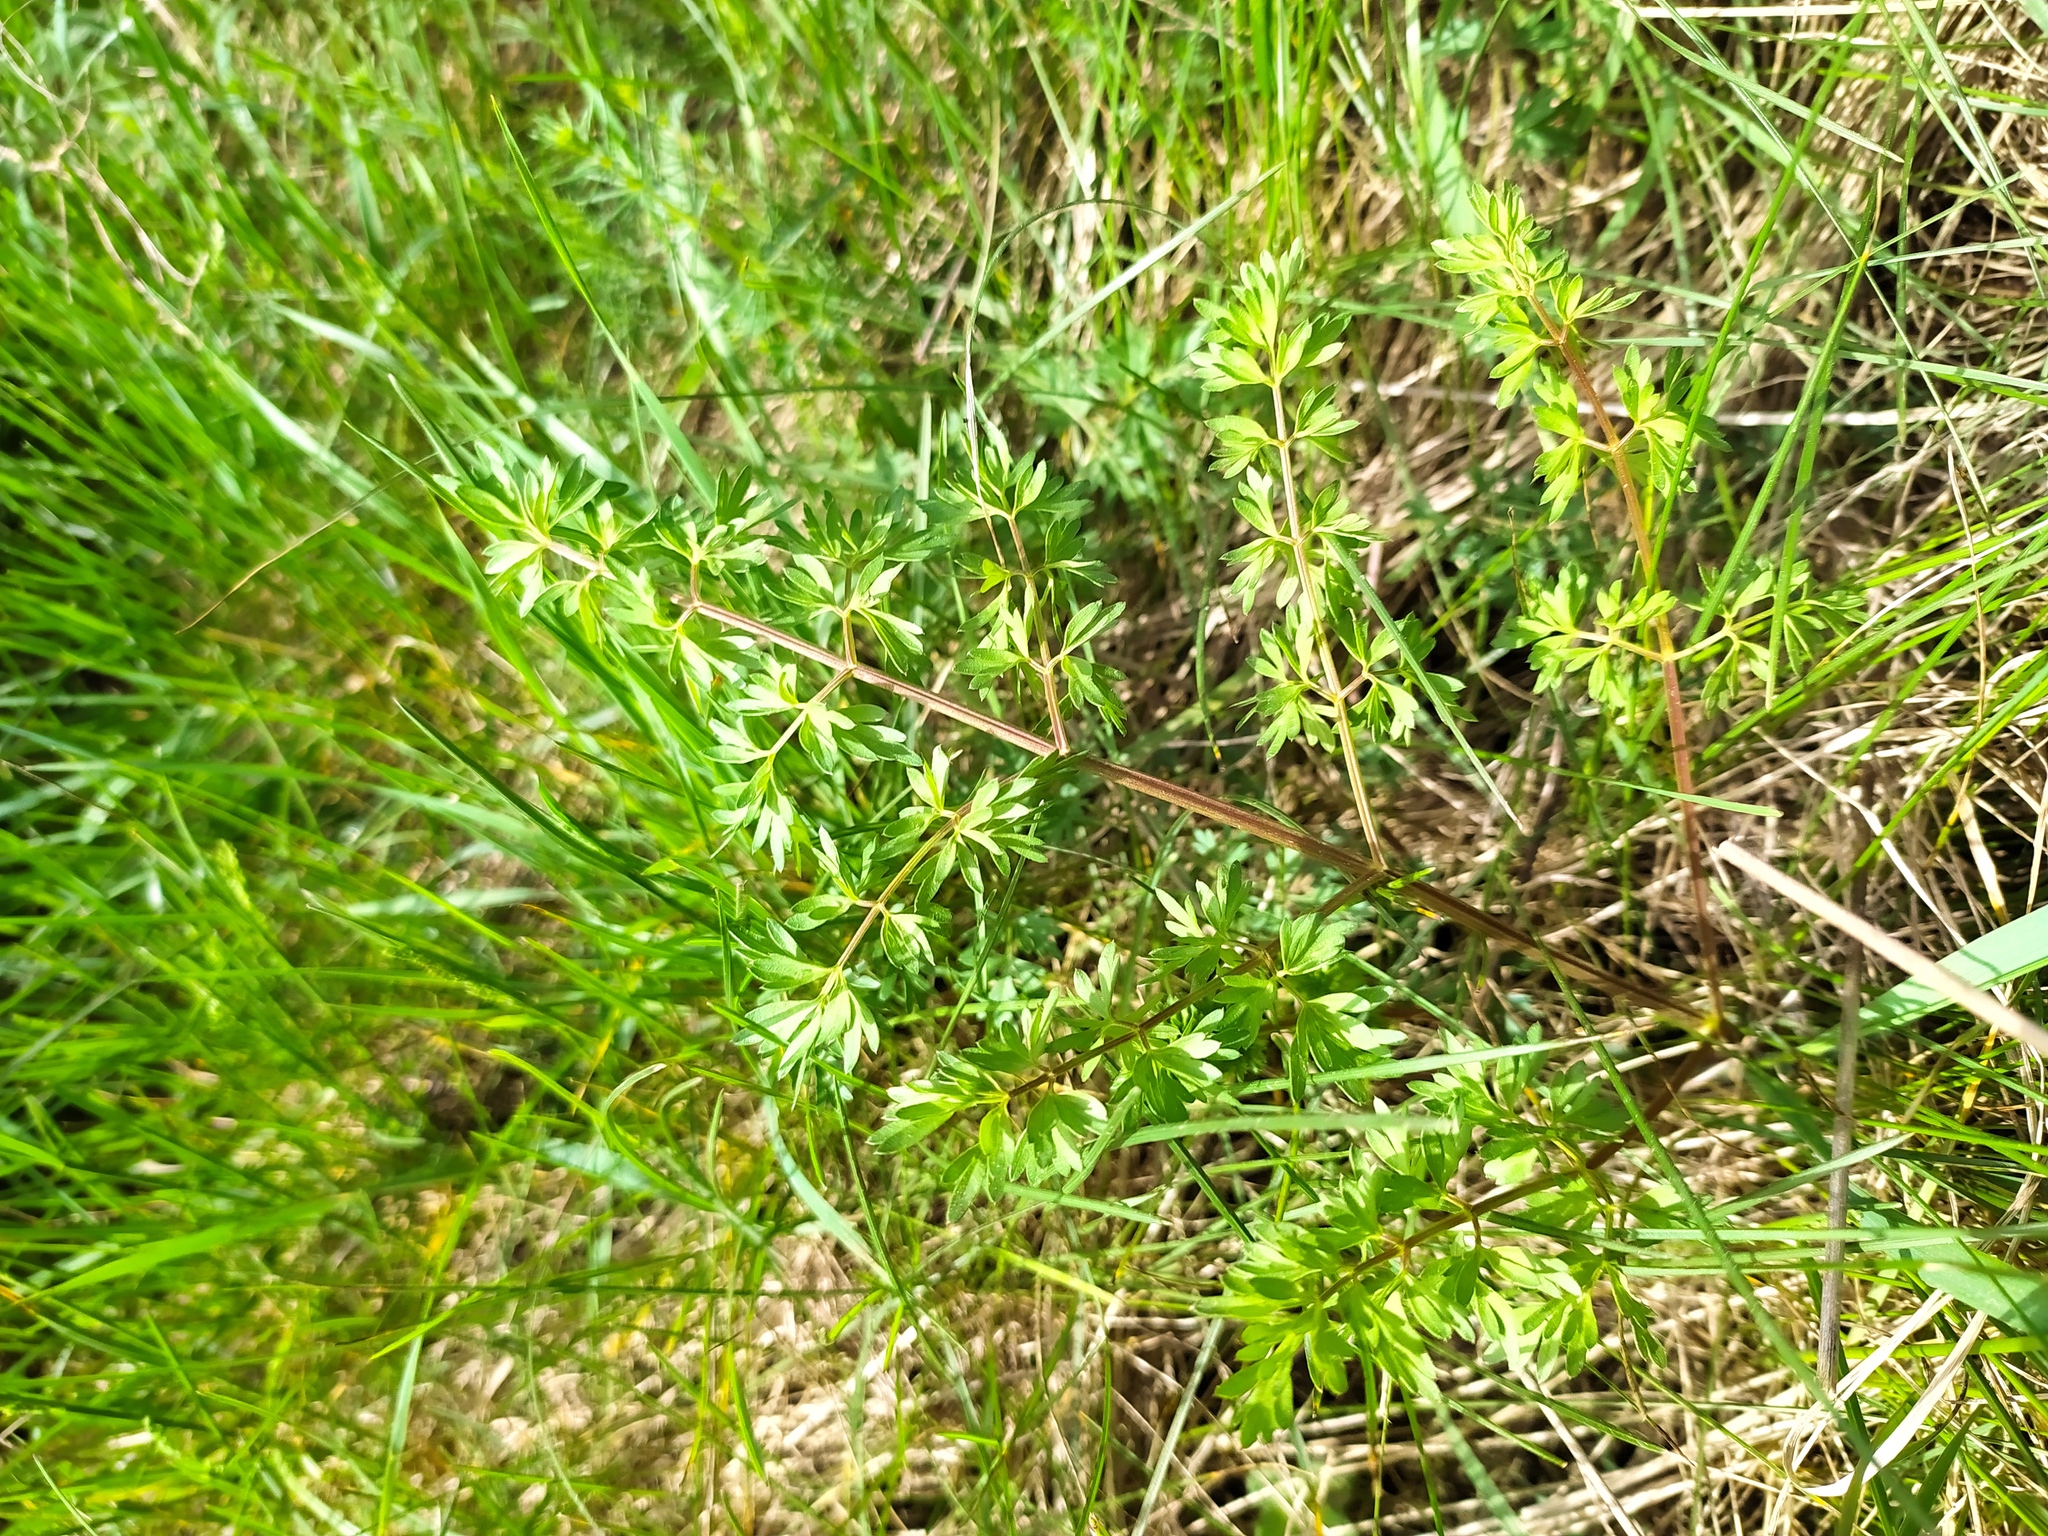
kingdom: Plantae
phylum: Tracheophyta
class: Magnoliopsida
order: Apiales
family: Apiaceae
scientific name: Apiaceae
